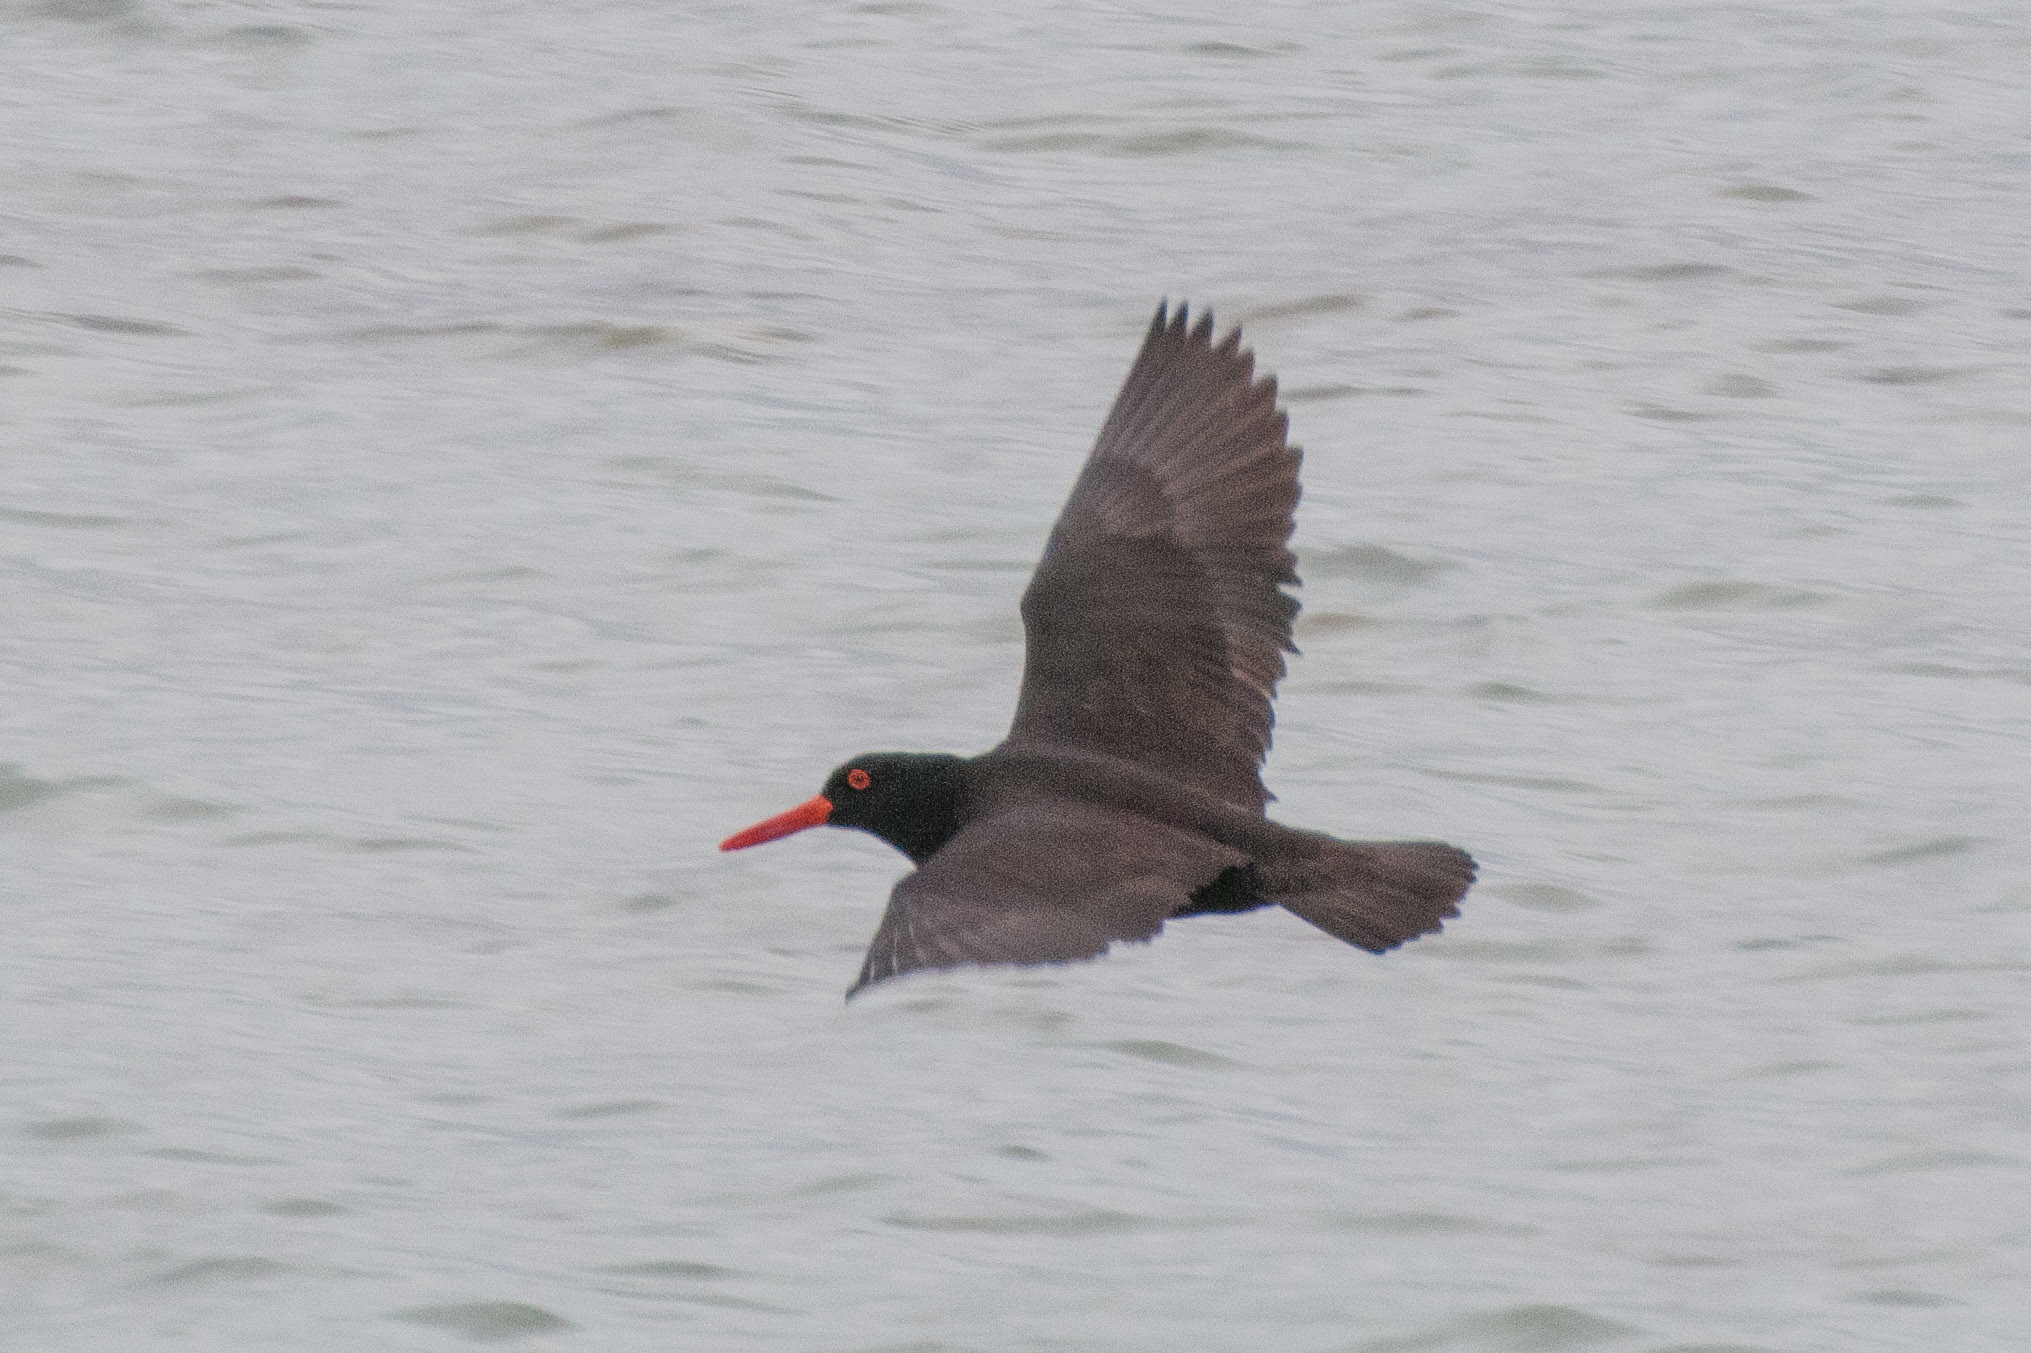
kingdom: Animalia
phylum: Chordata
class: Aves
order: Charadriiformes
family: Haematopodidae
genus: Haematopus
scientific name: Haematopus fuliginosus
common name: Sooty oystercatcher
